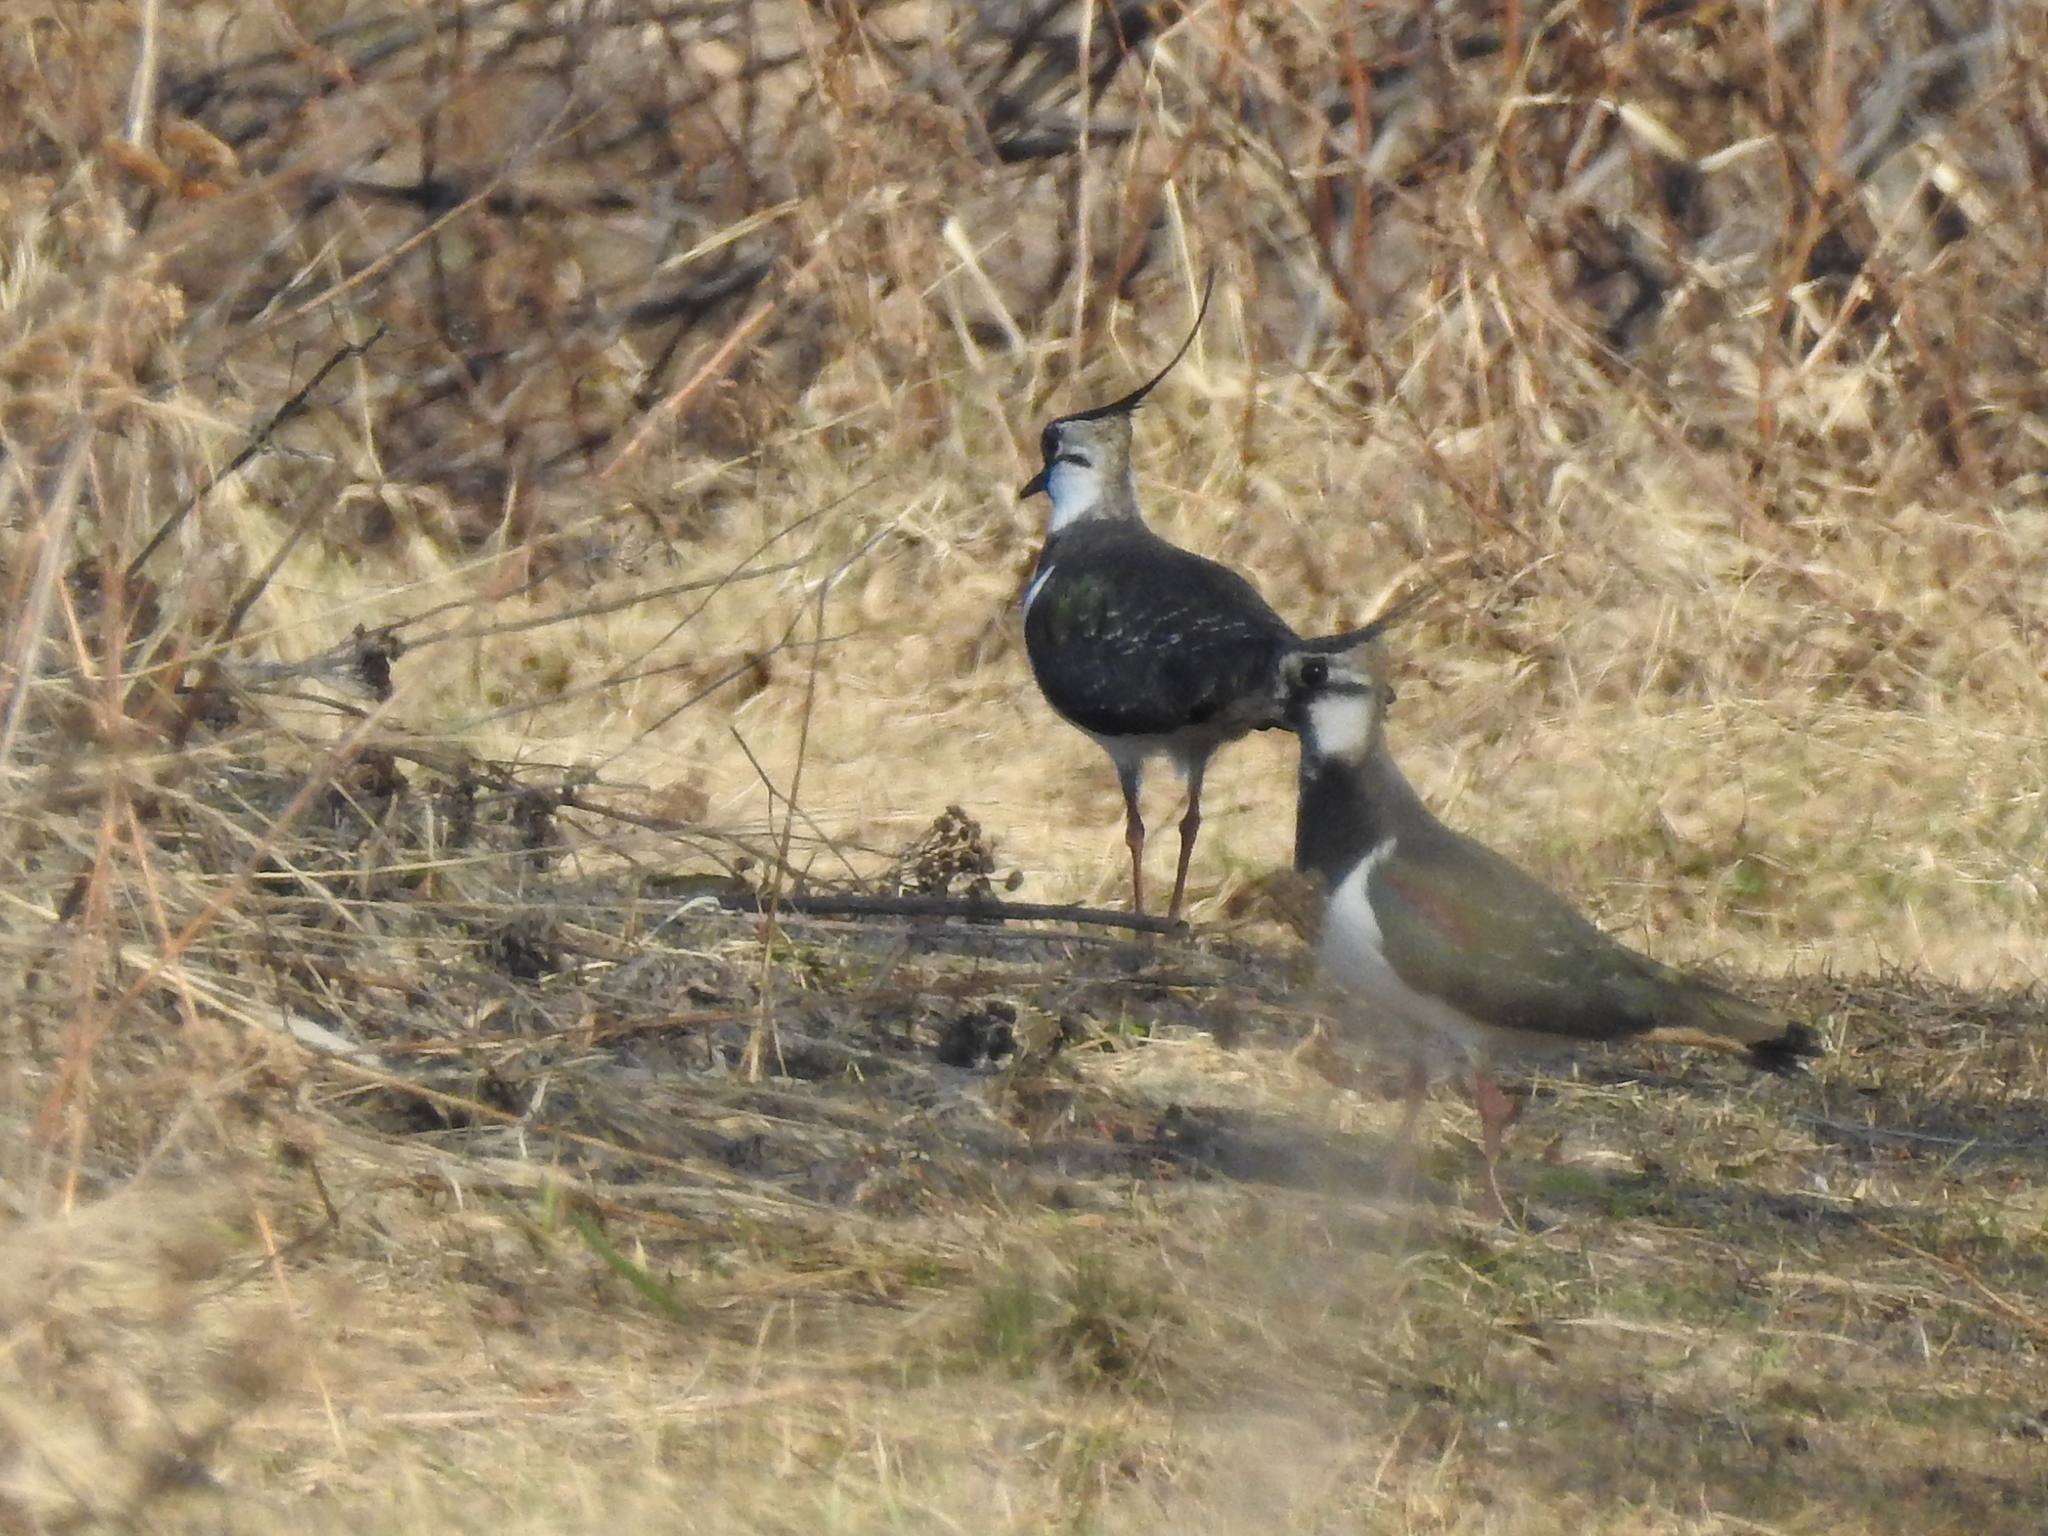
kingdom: Animalia
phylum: Chordata
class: Aves
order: Charadriiformes
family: Charadriidae
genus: Vanellus
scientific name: Vanellus vanellus
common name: Northern lapwing
